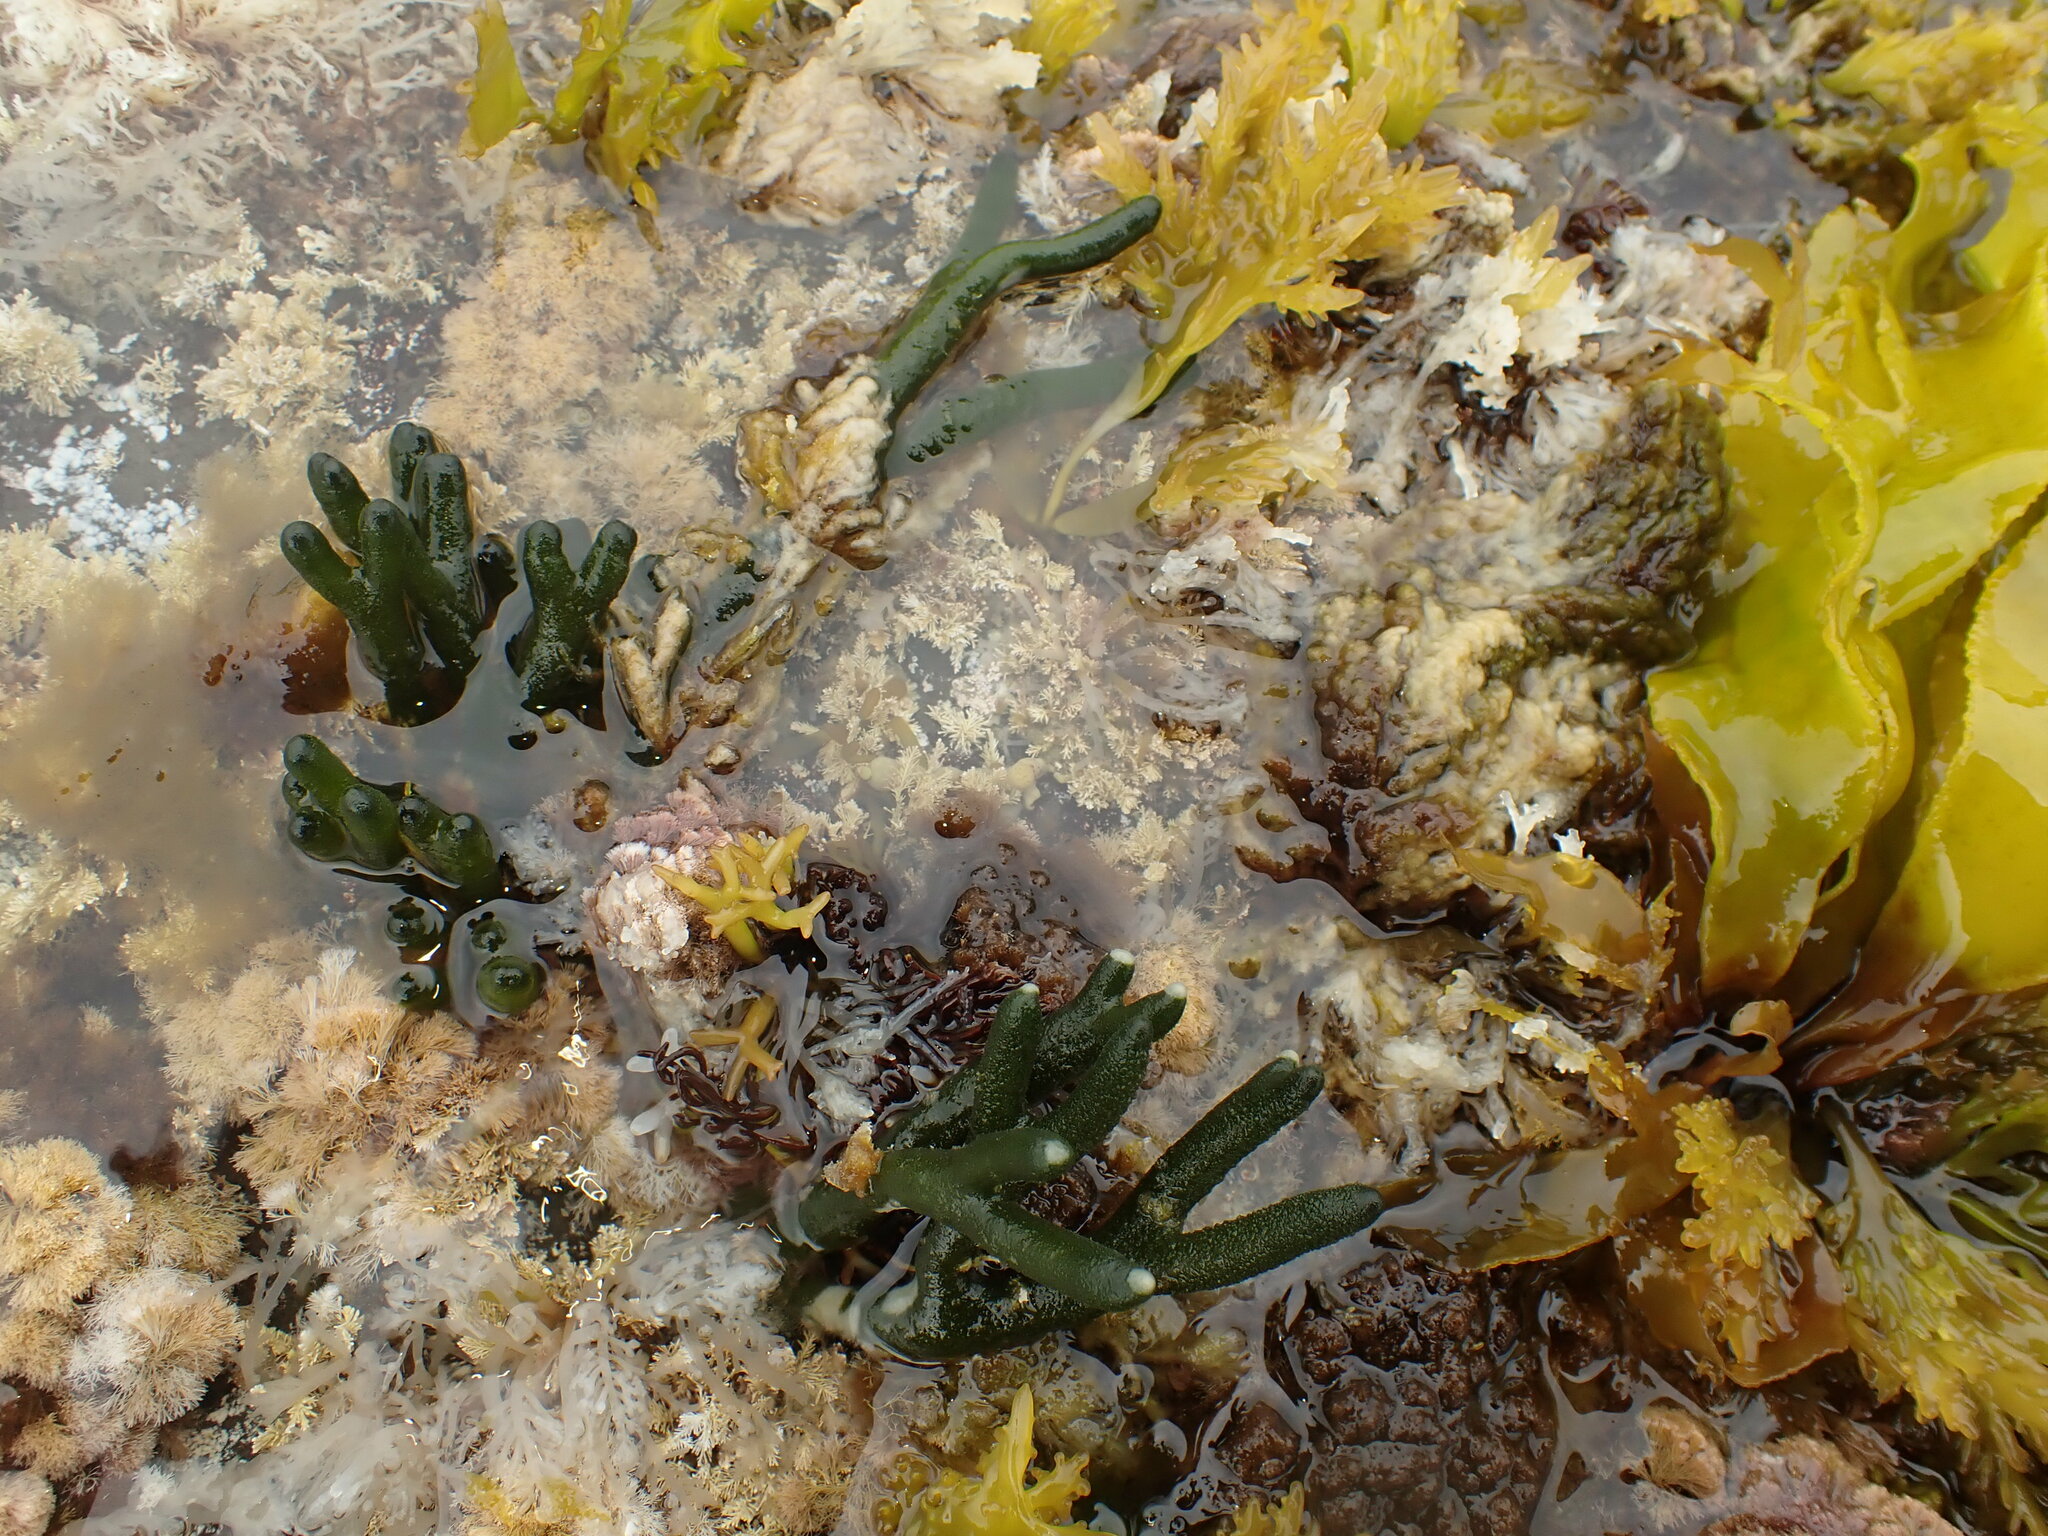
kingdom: Plantae
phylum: Chlorophyta
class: Ulvophyceae
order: Bryopsidales
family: Codiaceae
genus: Codium
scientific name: Codium fragile
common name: Dead man's fingers
